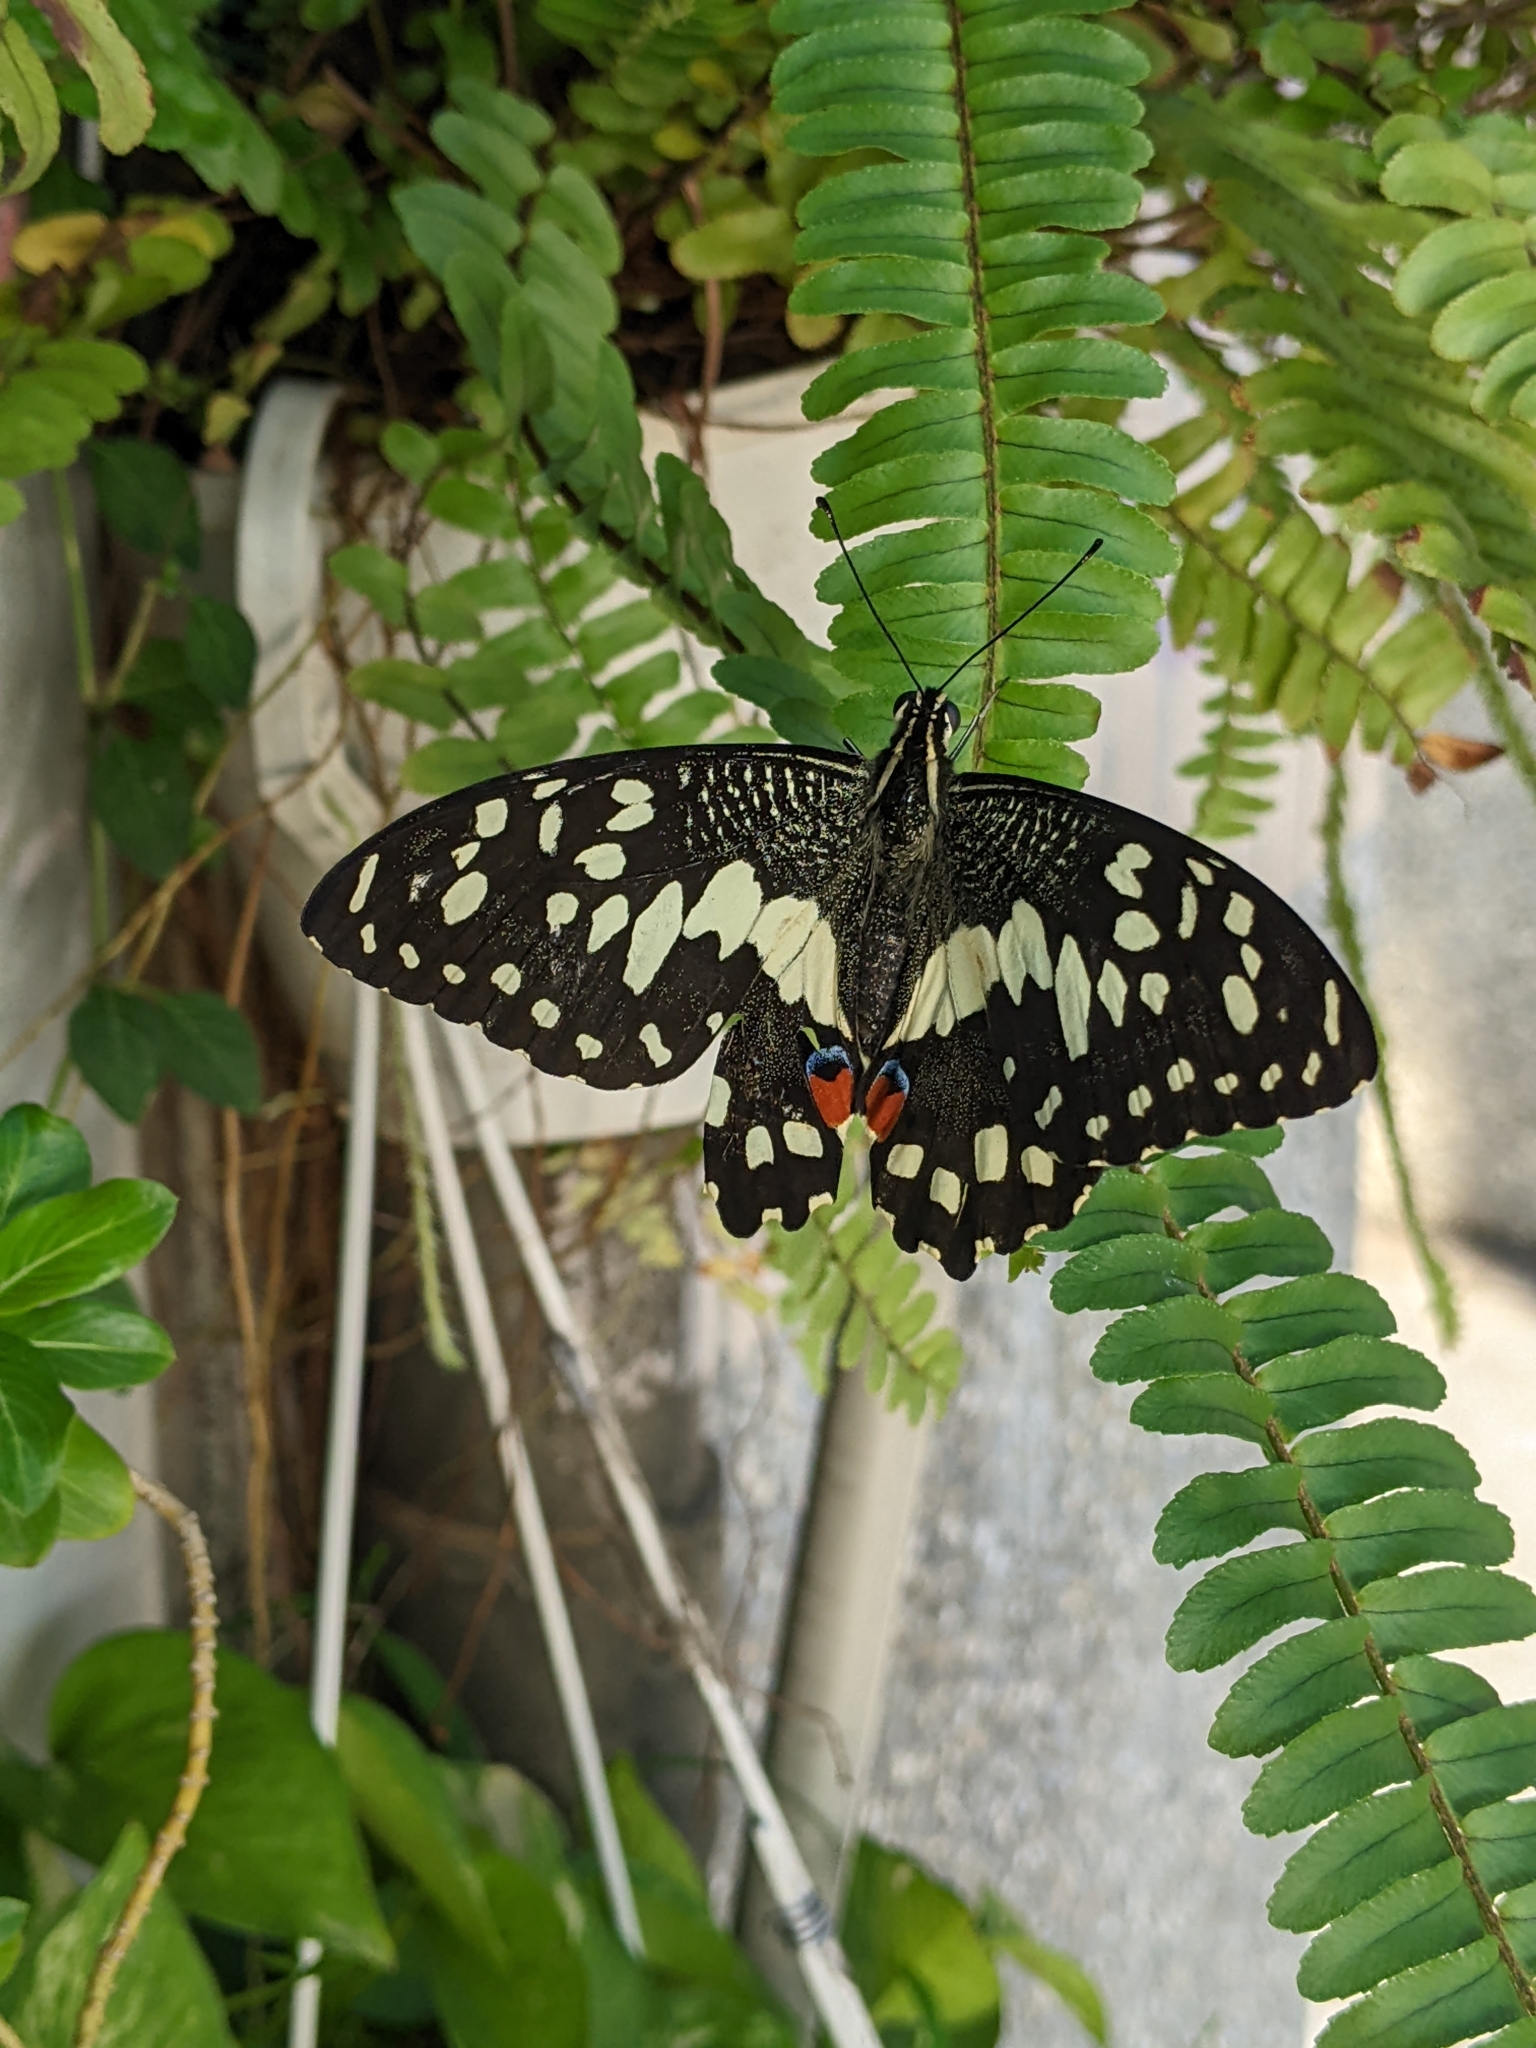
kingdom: Animalia
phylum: Arthropoda
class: Insecta
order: Lepidoptera
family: Papilionidae
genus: Papilio
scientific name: Papilio demoleus
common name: Lime butterfly
